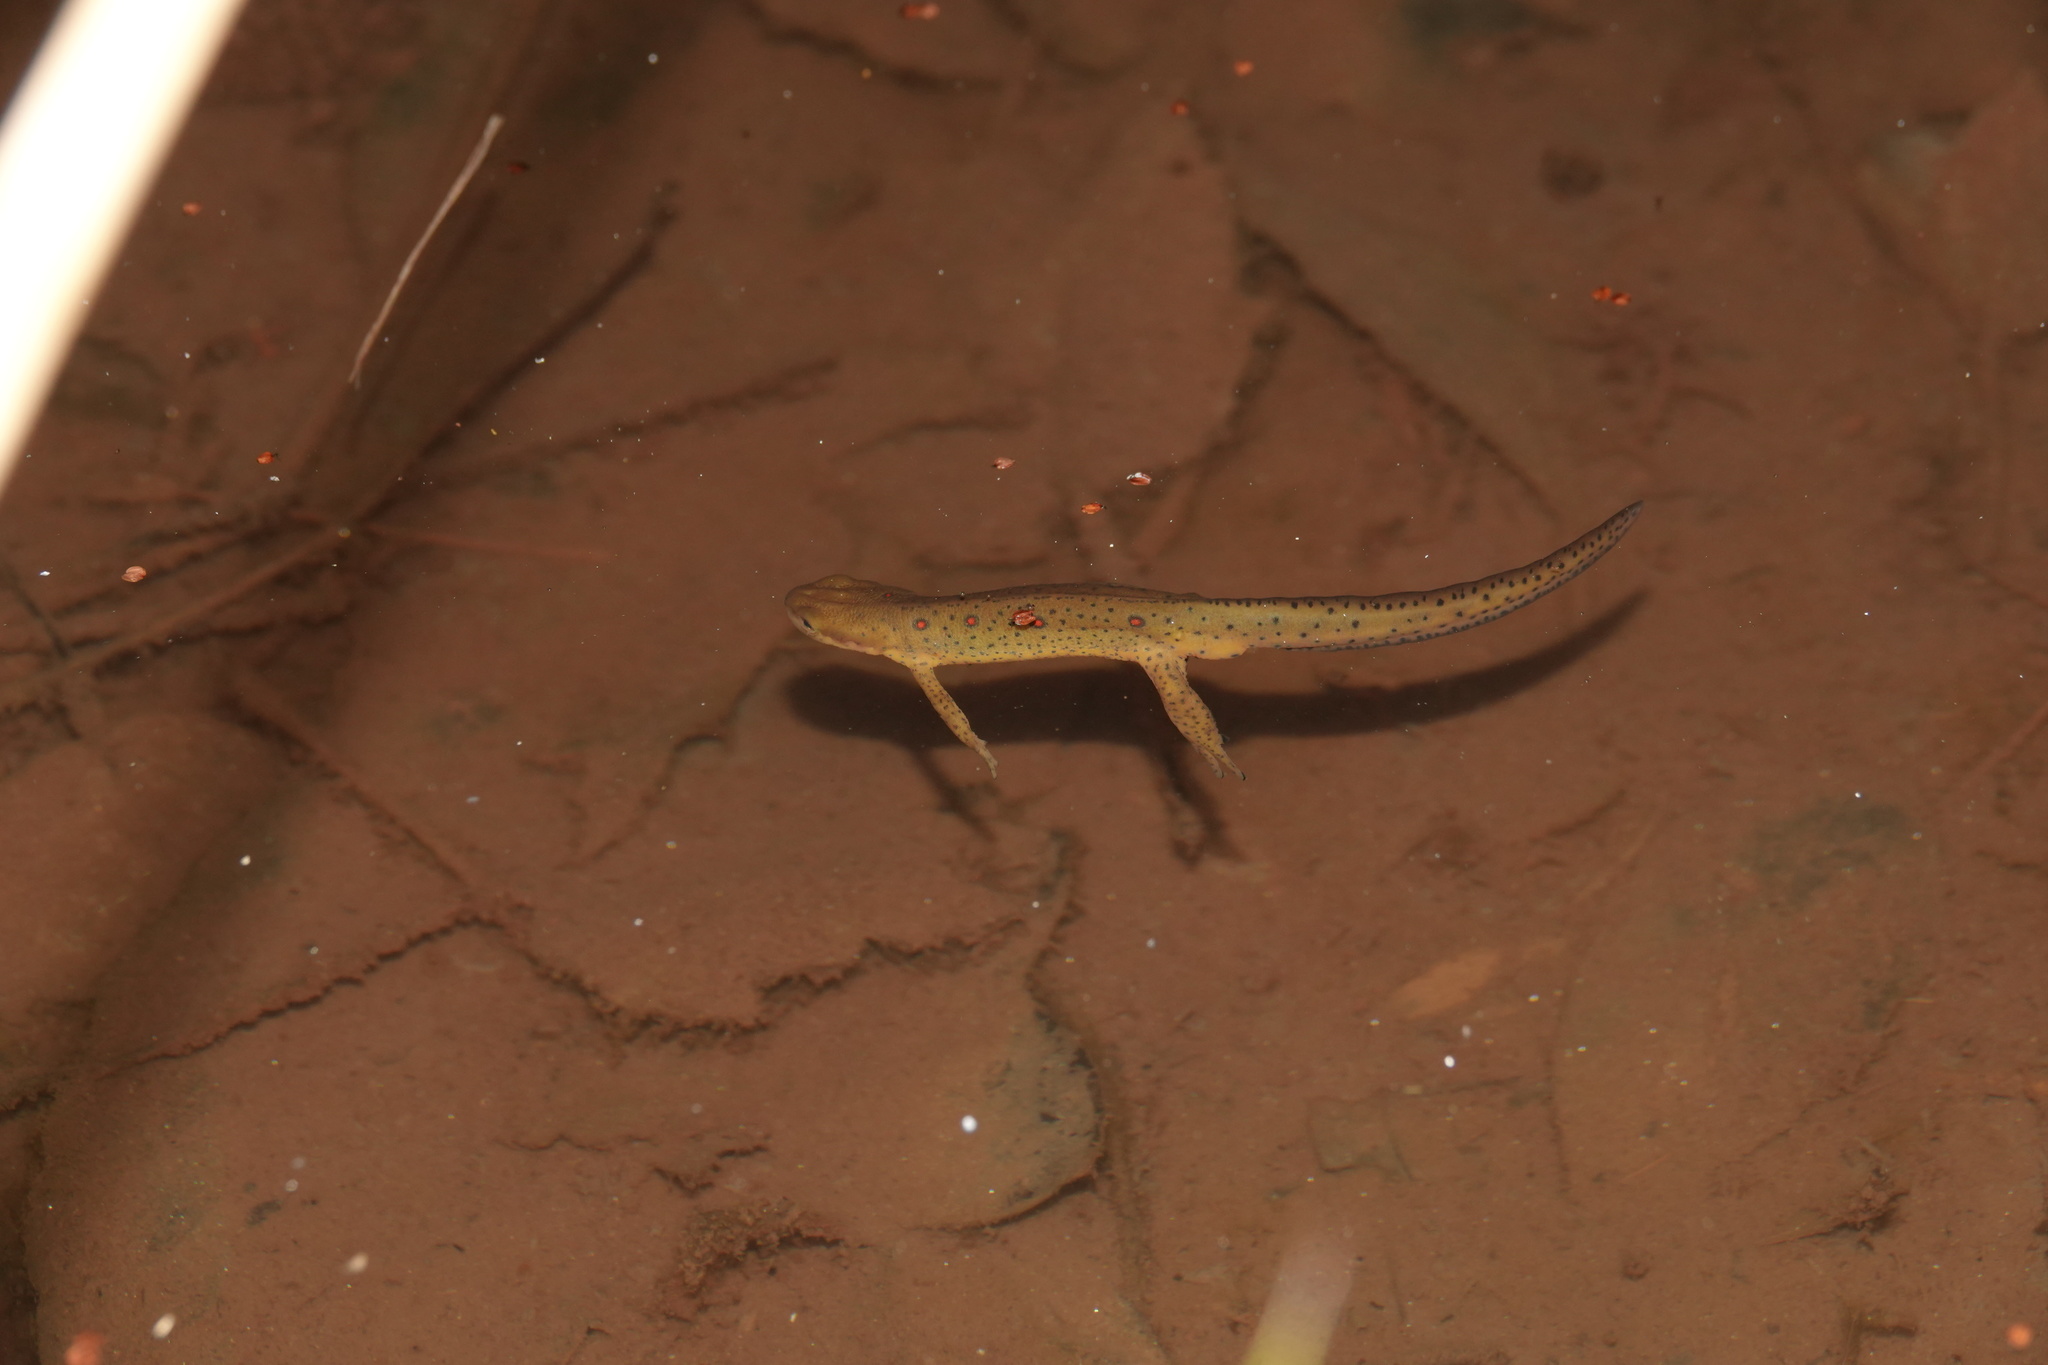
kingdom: Animalia
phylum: Chordata
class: Amphibia
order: Caudata
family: Salamandridae
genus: Notophthalmus
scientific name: Notophthalmus viridescens
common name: Eastern newt
